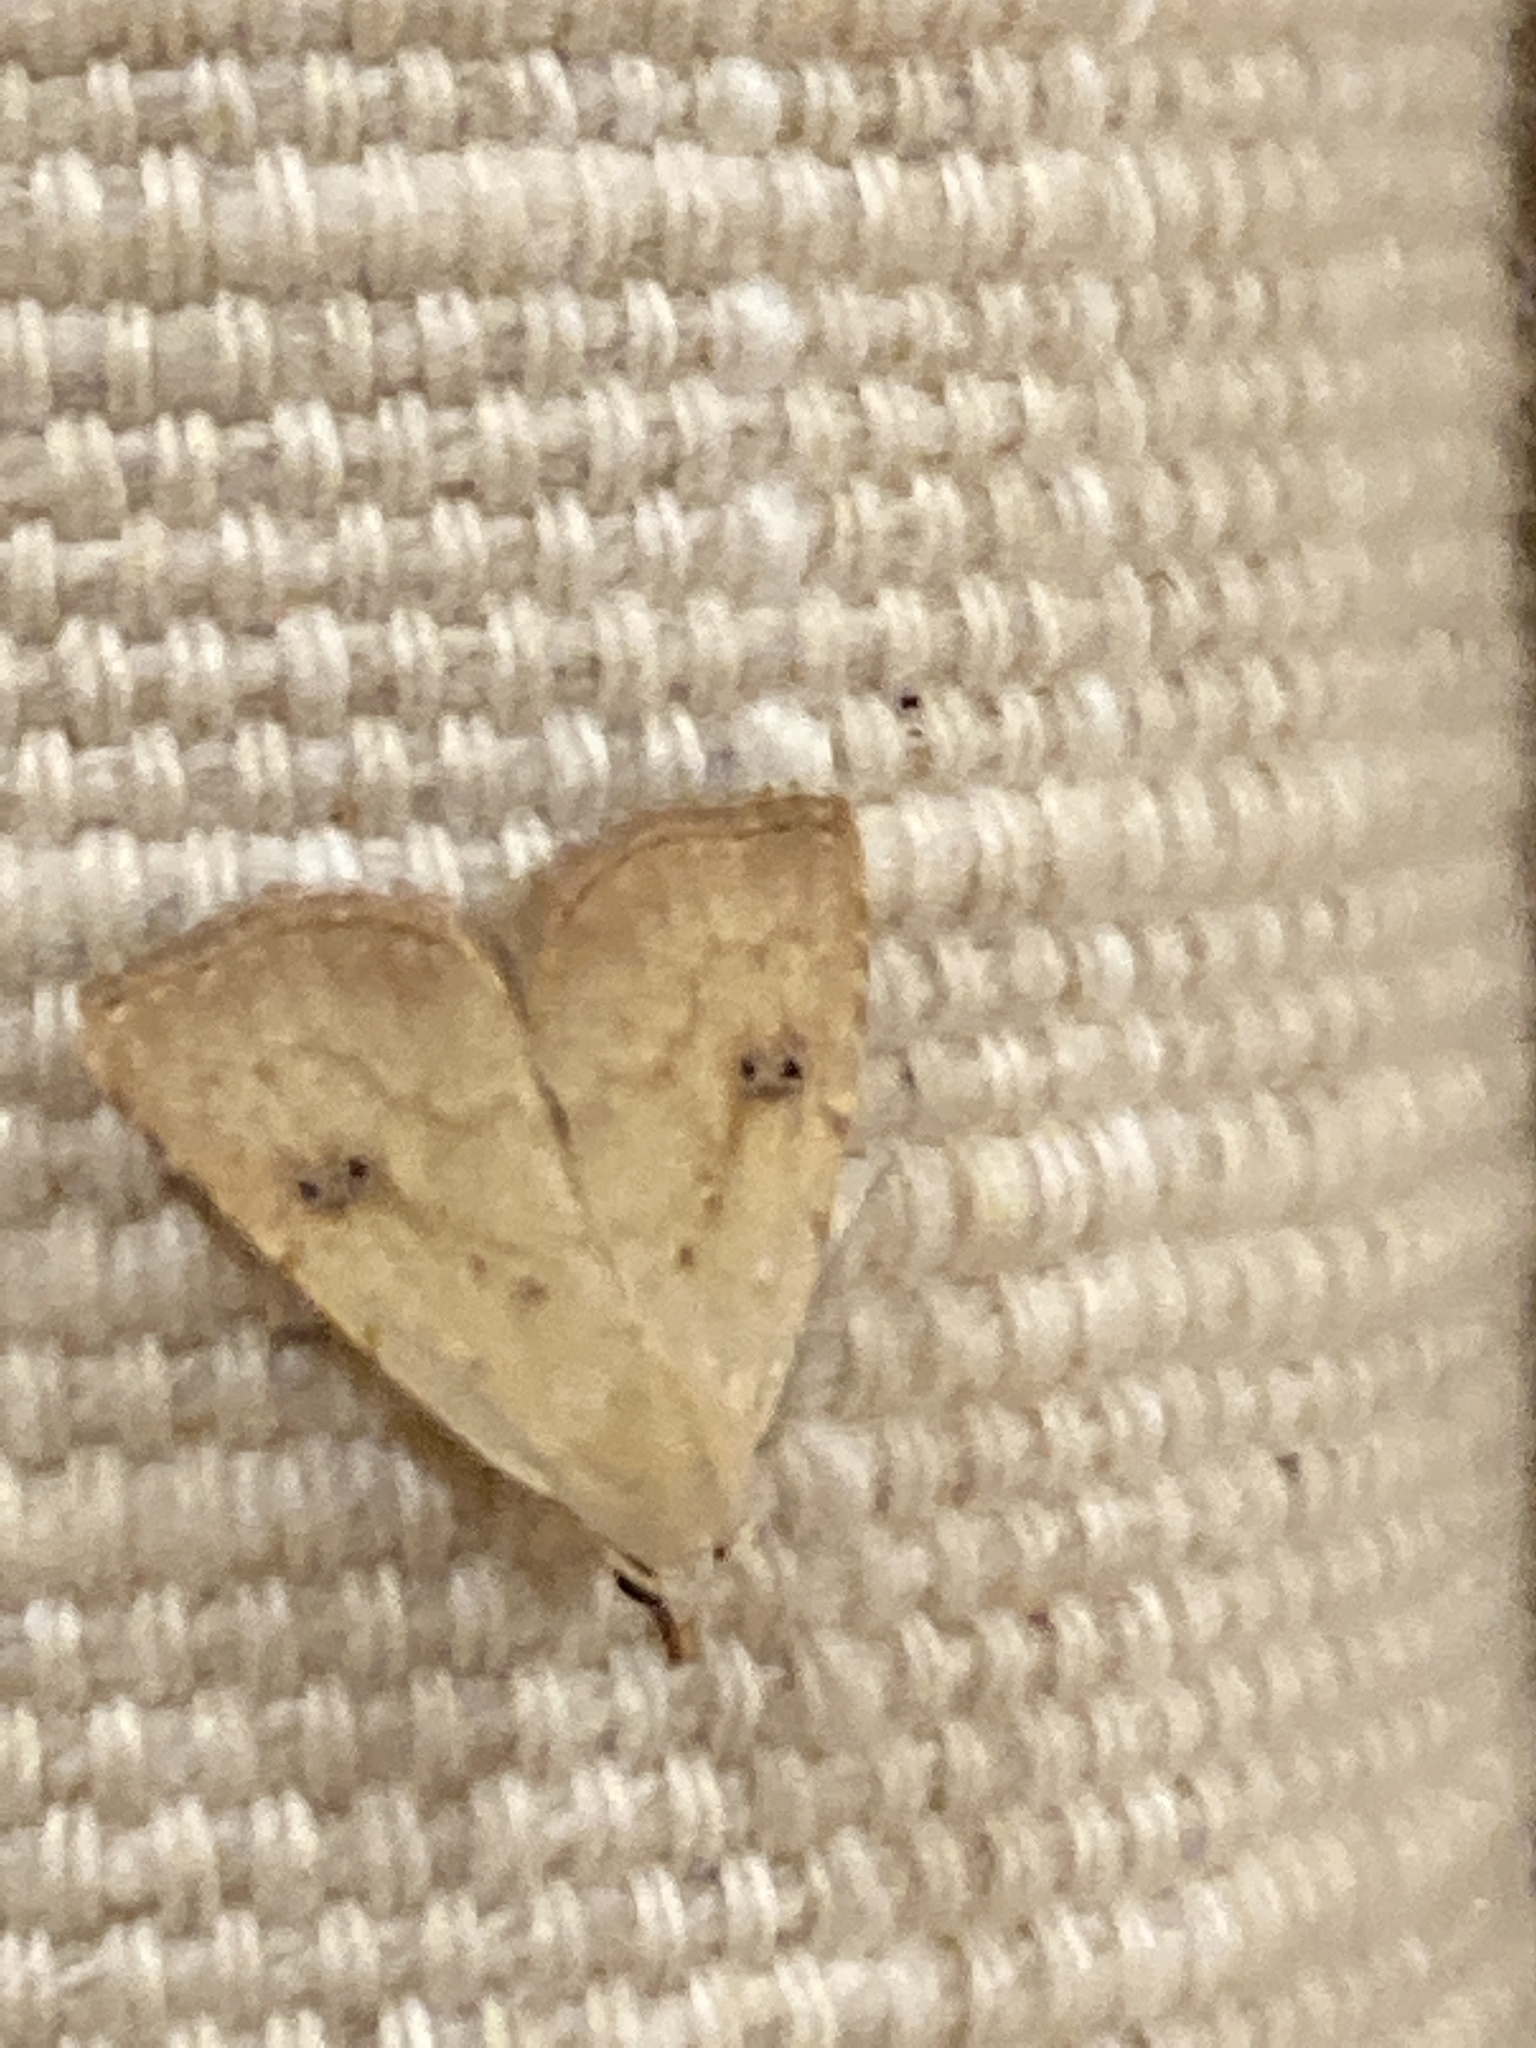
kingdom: Animalia
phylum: Arthropoda
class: Insecta
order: Lepidoptera
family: Erebidae
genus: Rivula
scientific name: Rivula sericealis
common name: Straw dot
